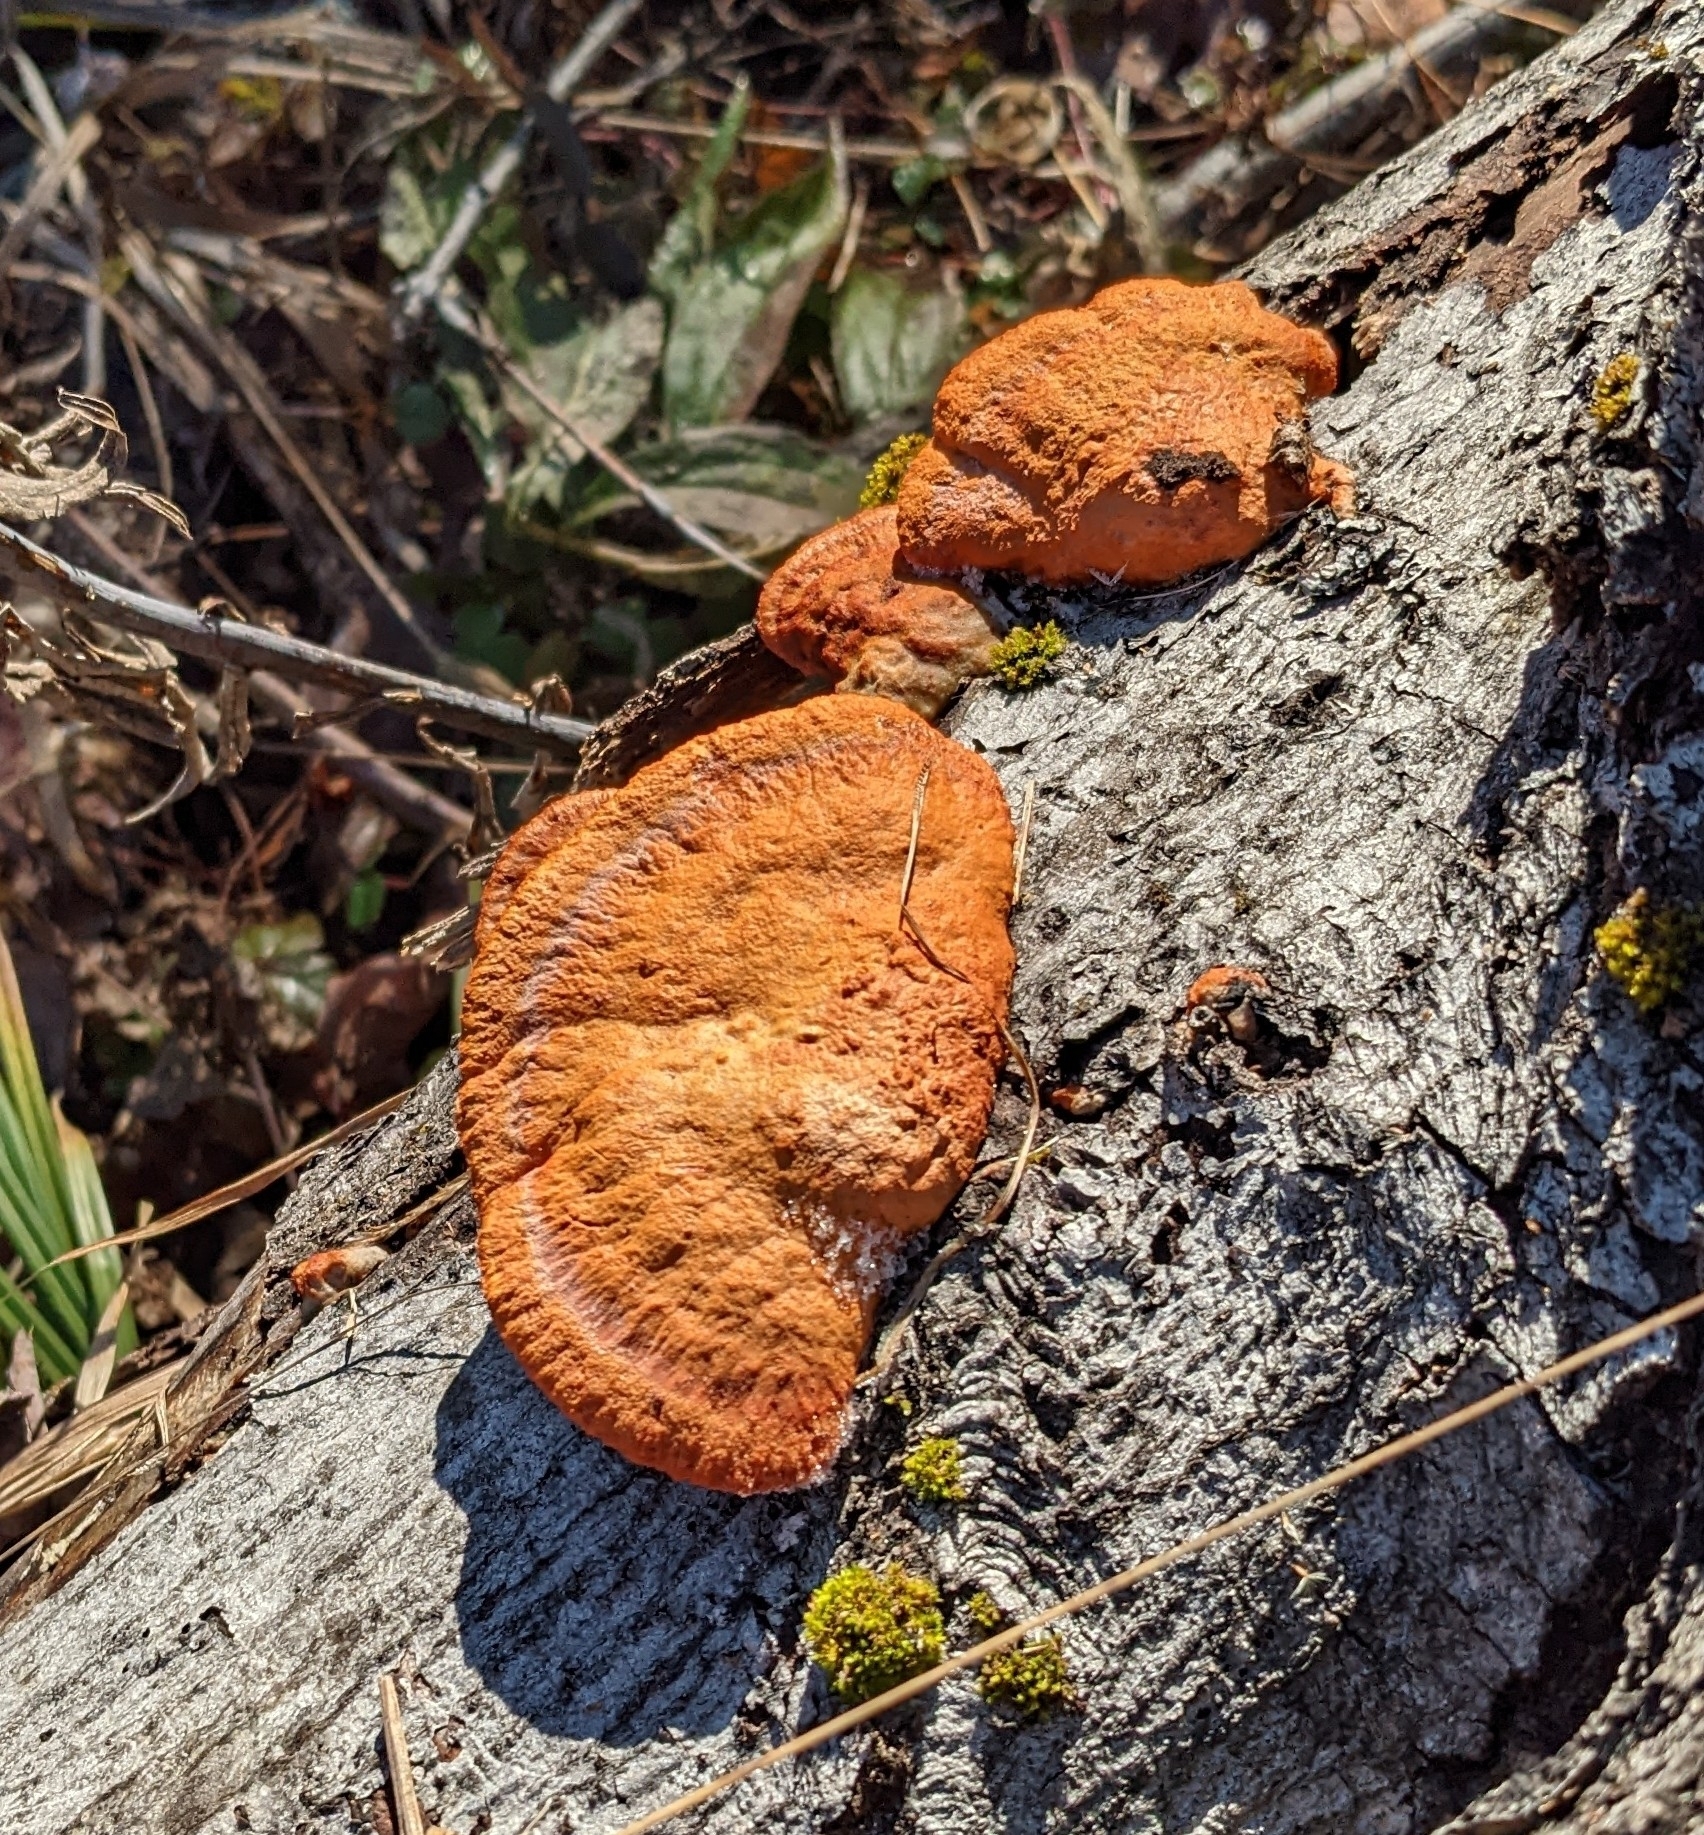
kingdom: Fungi
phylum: Basidiomycota
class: Agaricomycetes
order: Polyporales
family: Polyporaceae
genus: Trametes
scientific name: Trametes cinnabarina
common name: Northern cinnabar polypore
